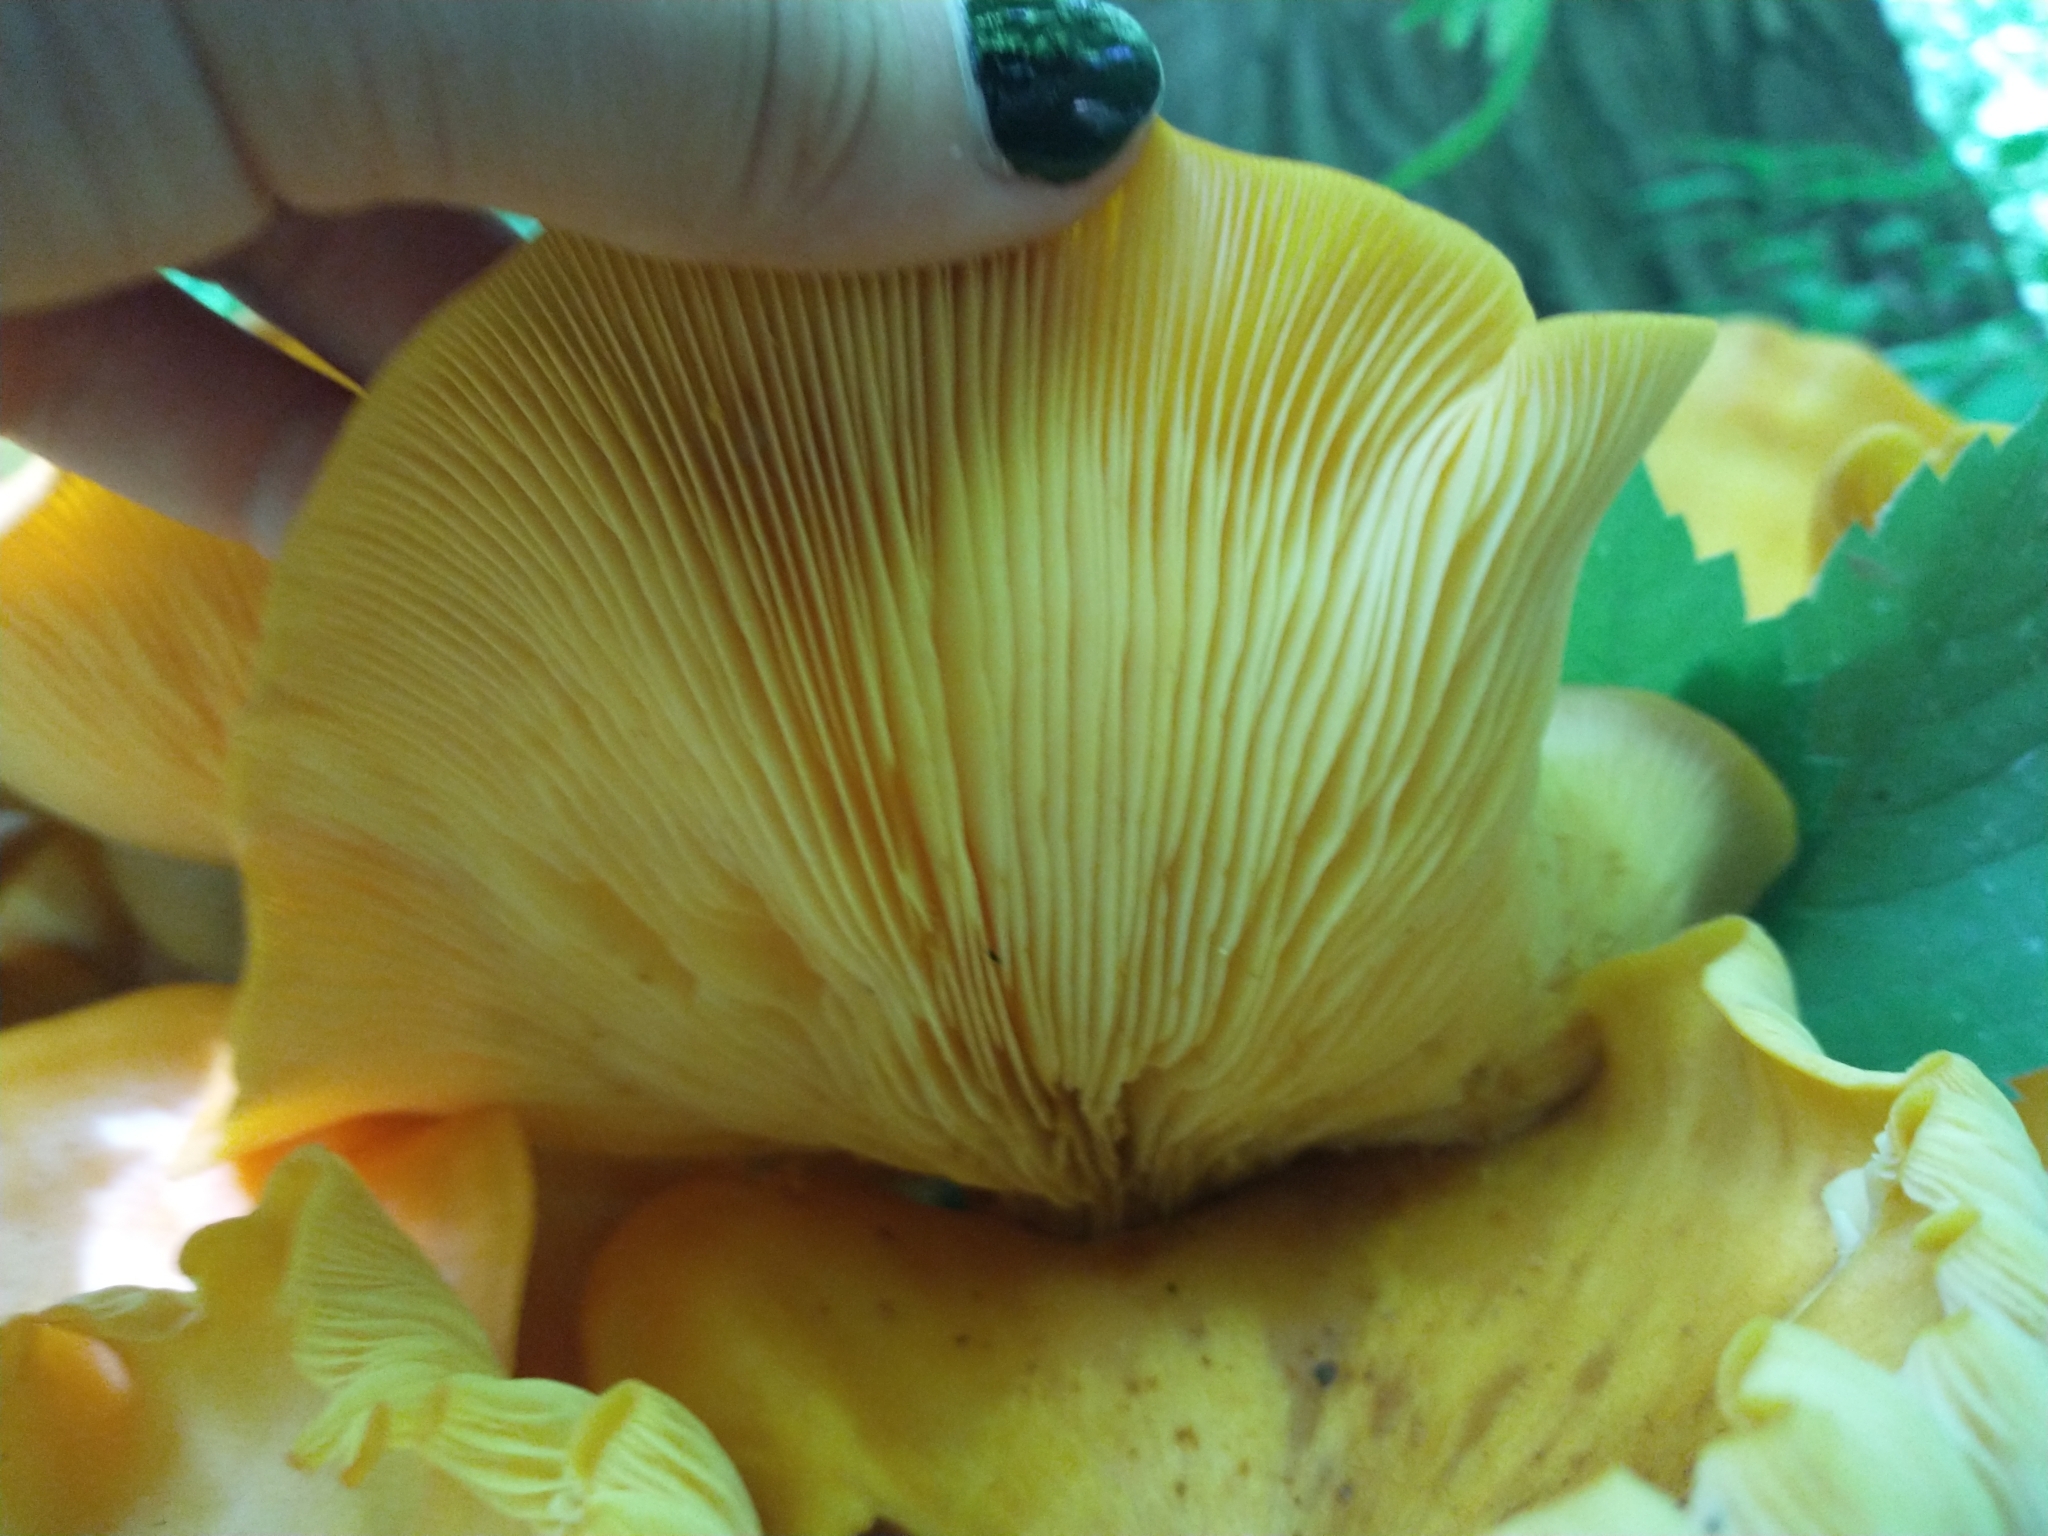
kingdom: Fungi
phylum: Basidiomycota
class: Agaricomycetes
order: Agaricales
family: Omphalotaceae
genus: Omphalotus
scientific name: Omphalotus illudens
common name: Jack o lantern
